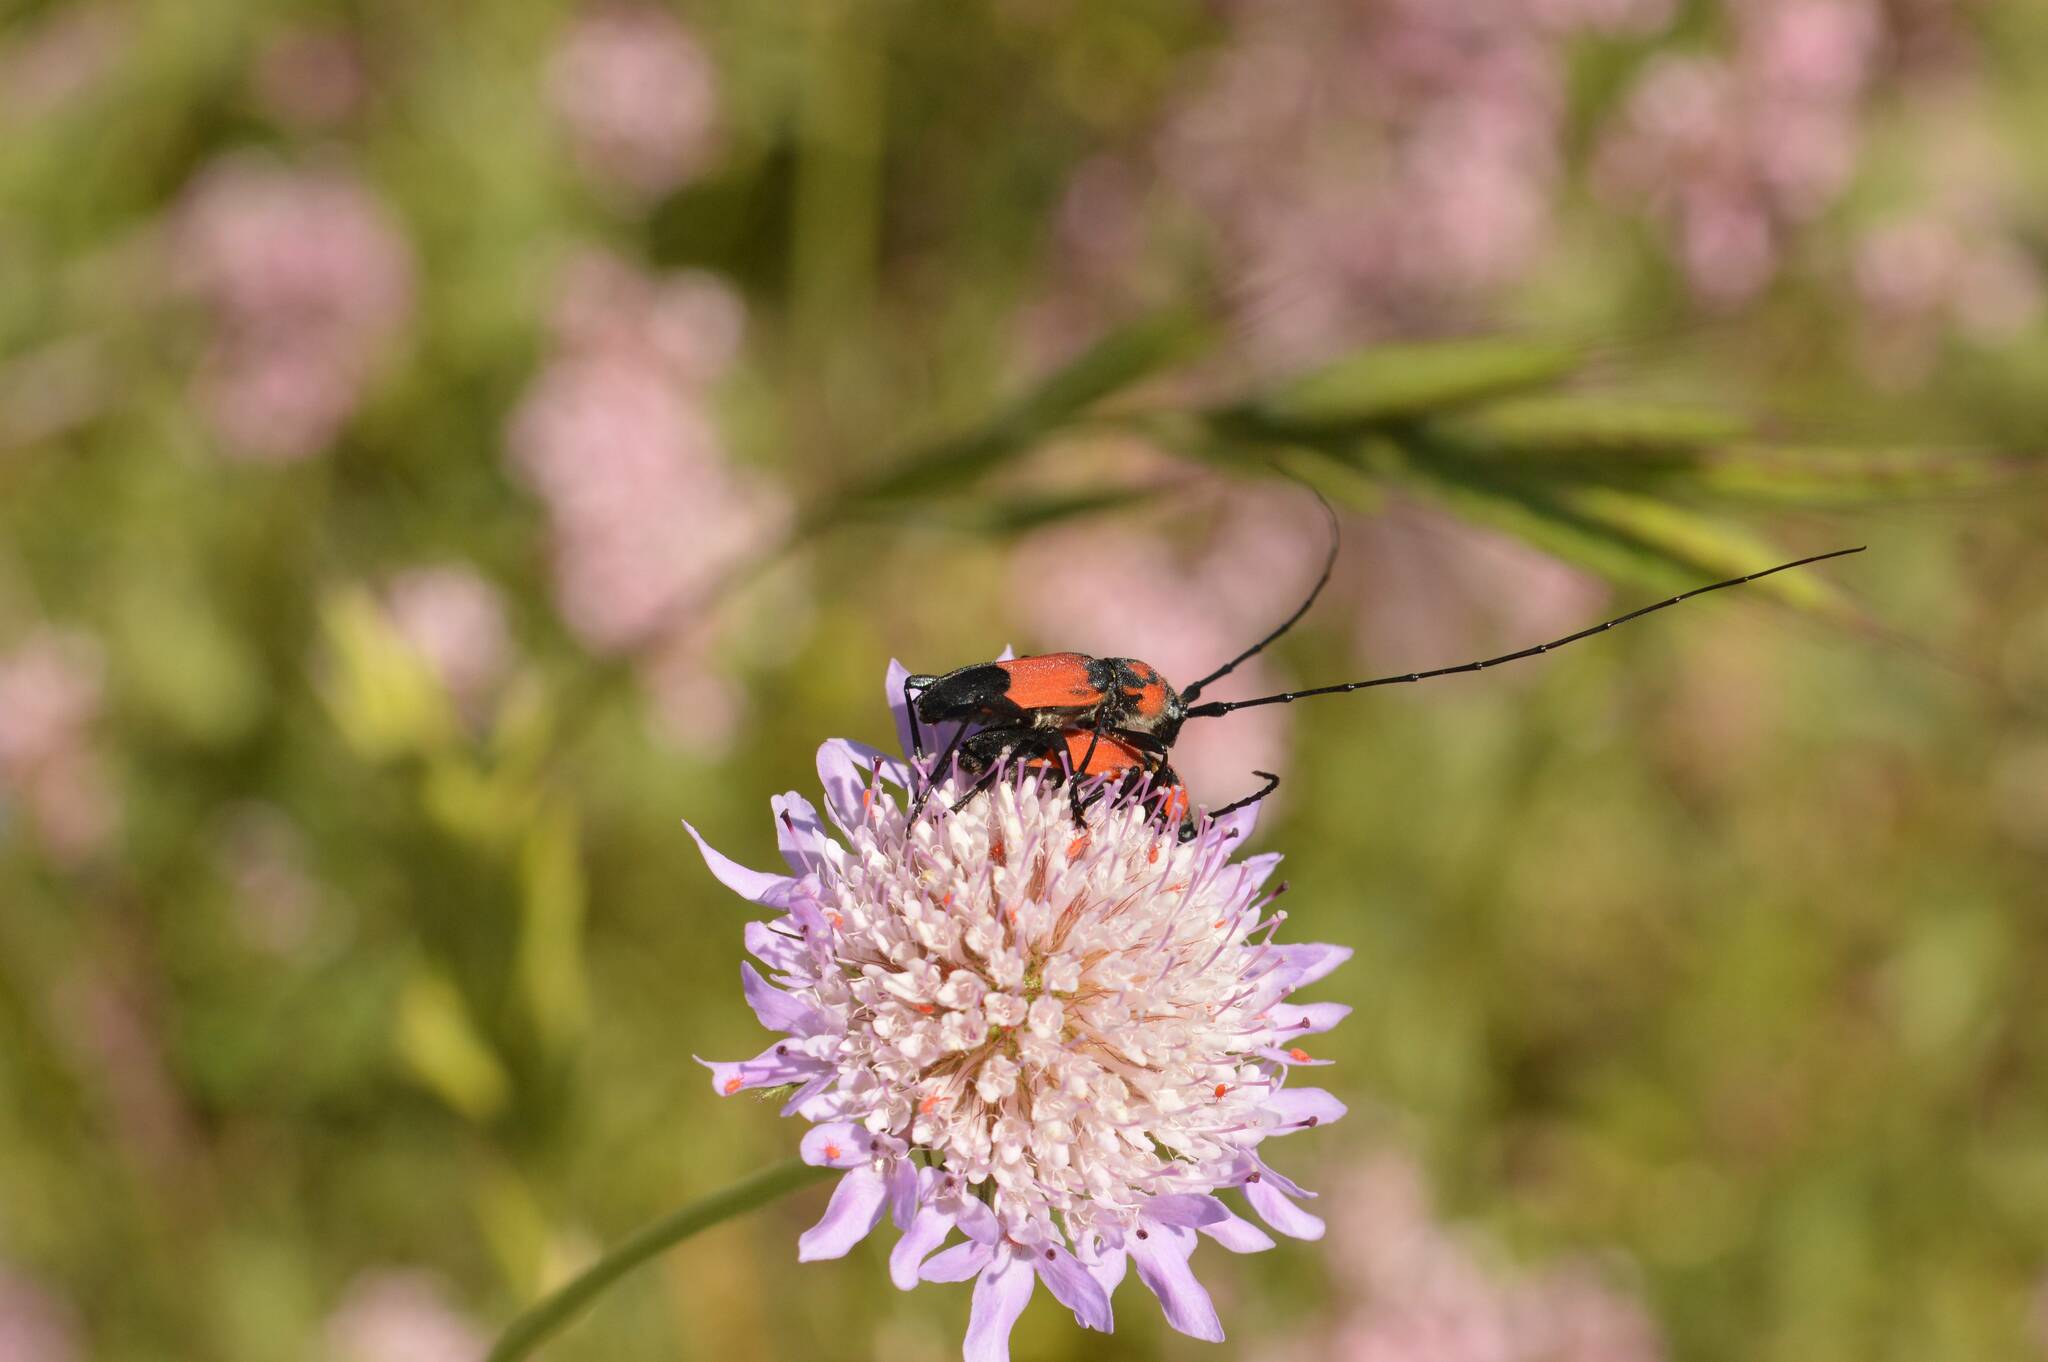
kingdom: Animalia
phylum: Arthropoda
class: Insecta
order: Coleoptera
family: Cerambycidae
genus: Purpuricenus
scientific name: Purpuricenus desfontainii
